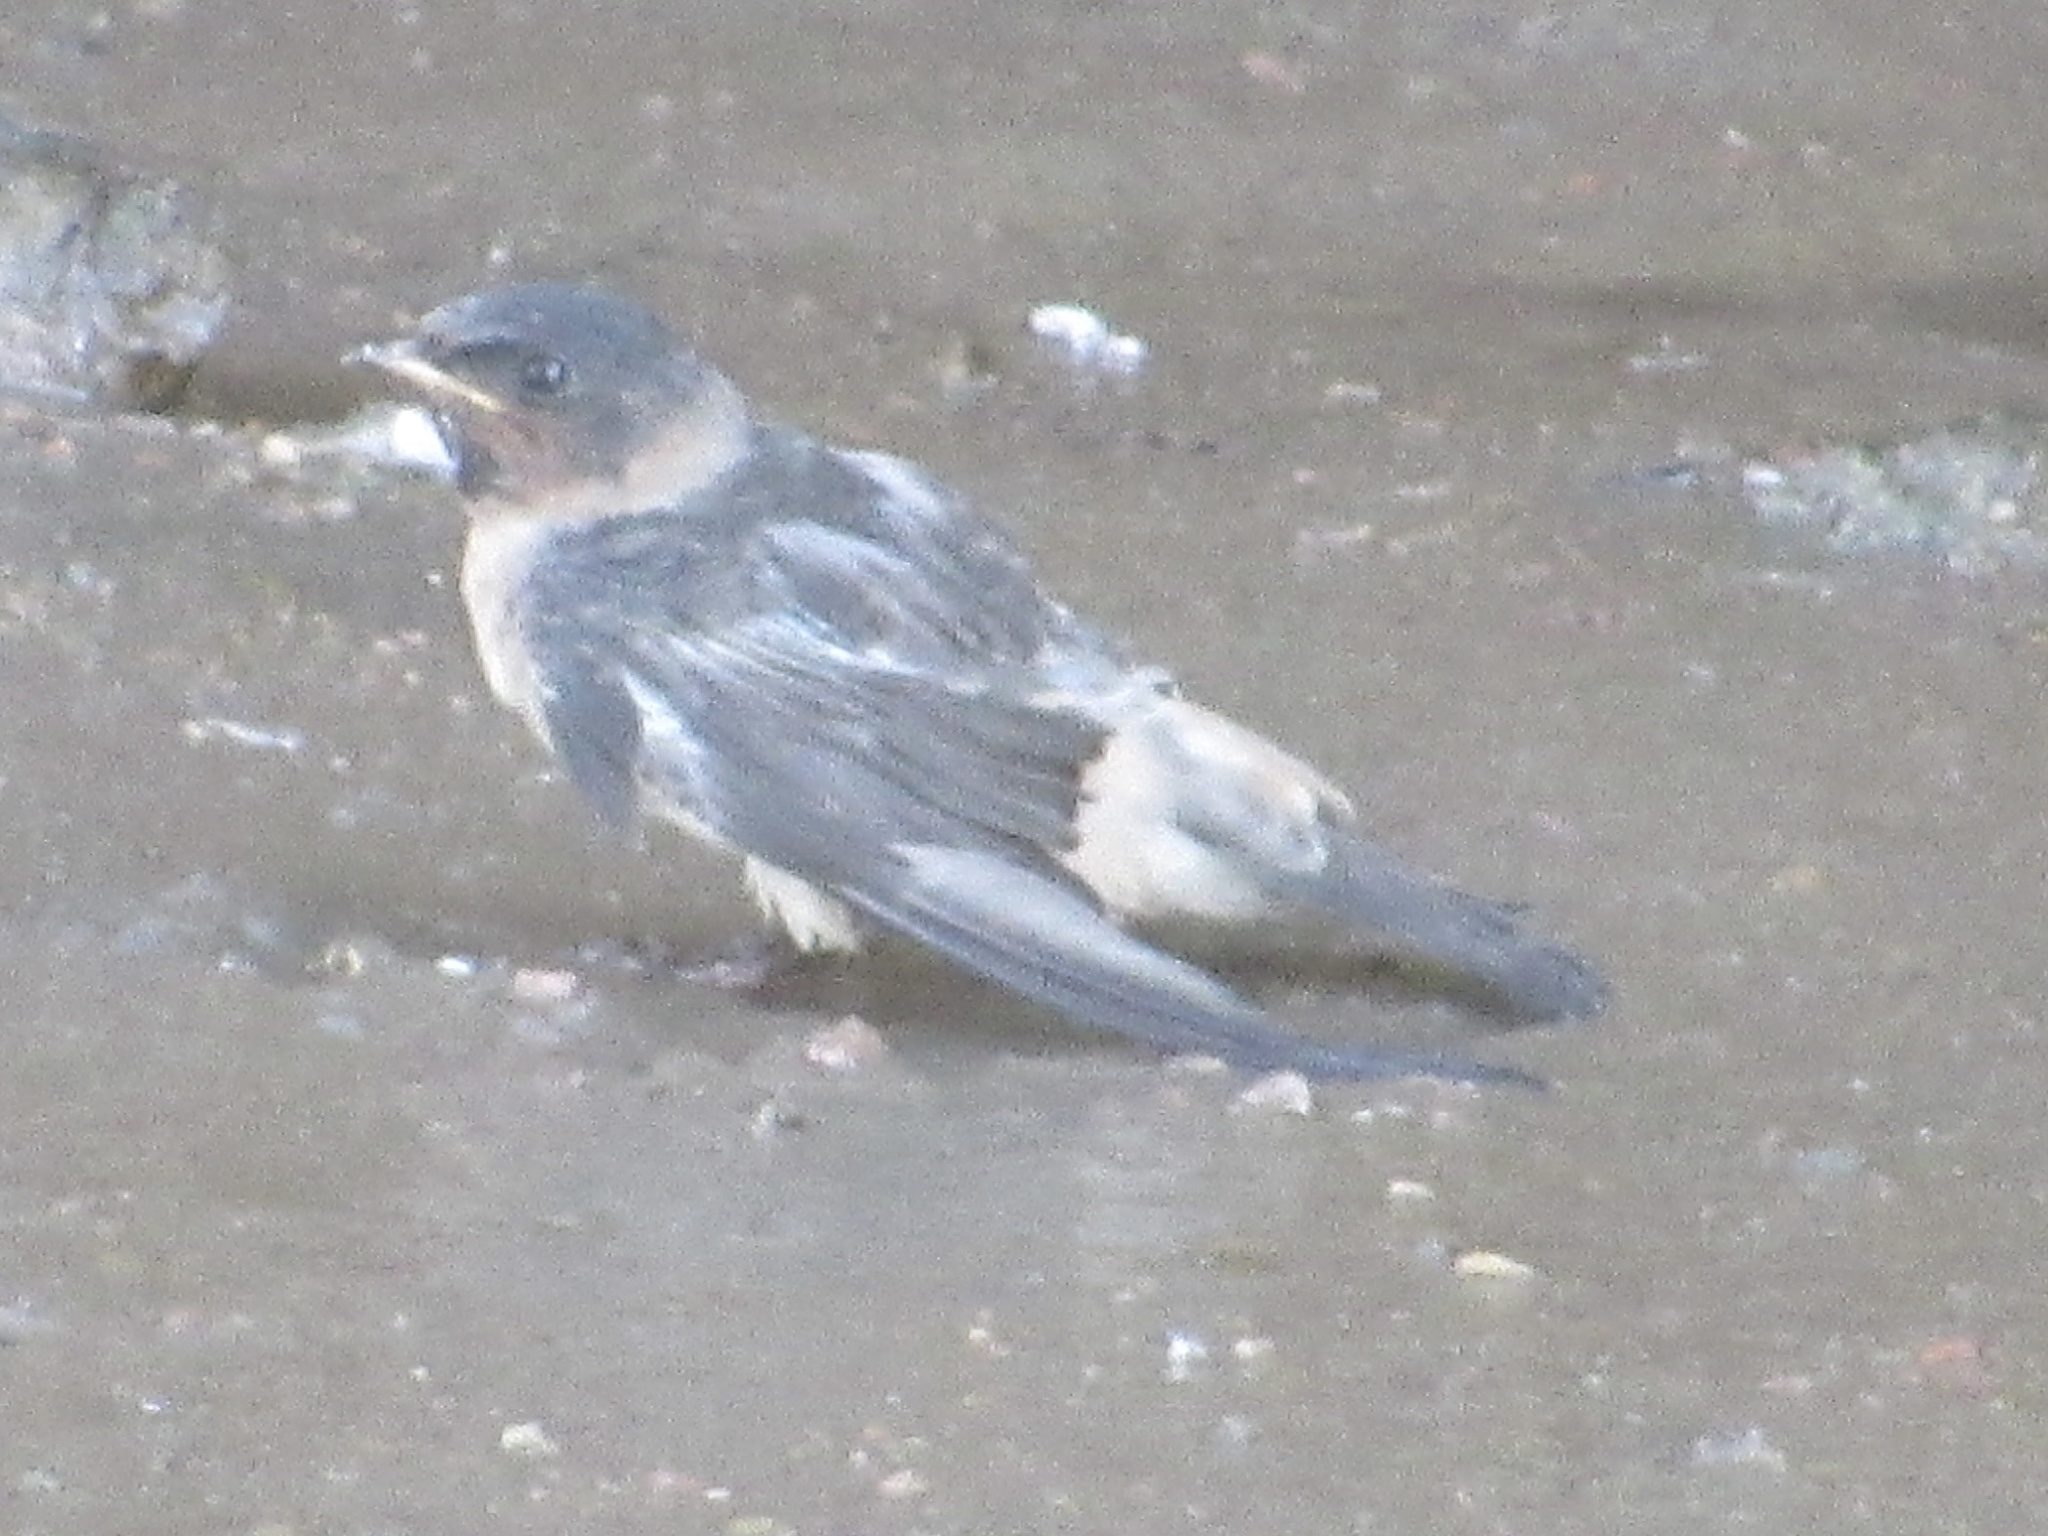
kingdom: Animalia
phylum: Chordata
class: Aves
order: Passeriformes
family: Hirundinidae
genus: Petrochelidon
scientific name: Petrochelidon pyrrhonota
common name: American cliff swallow
